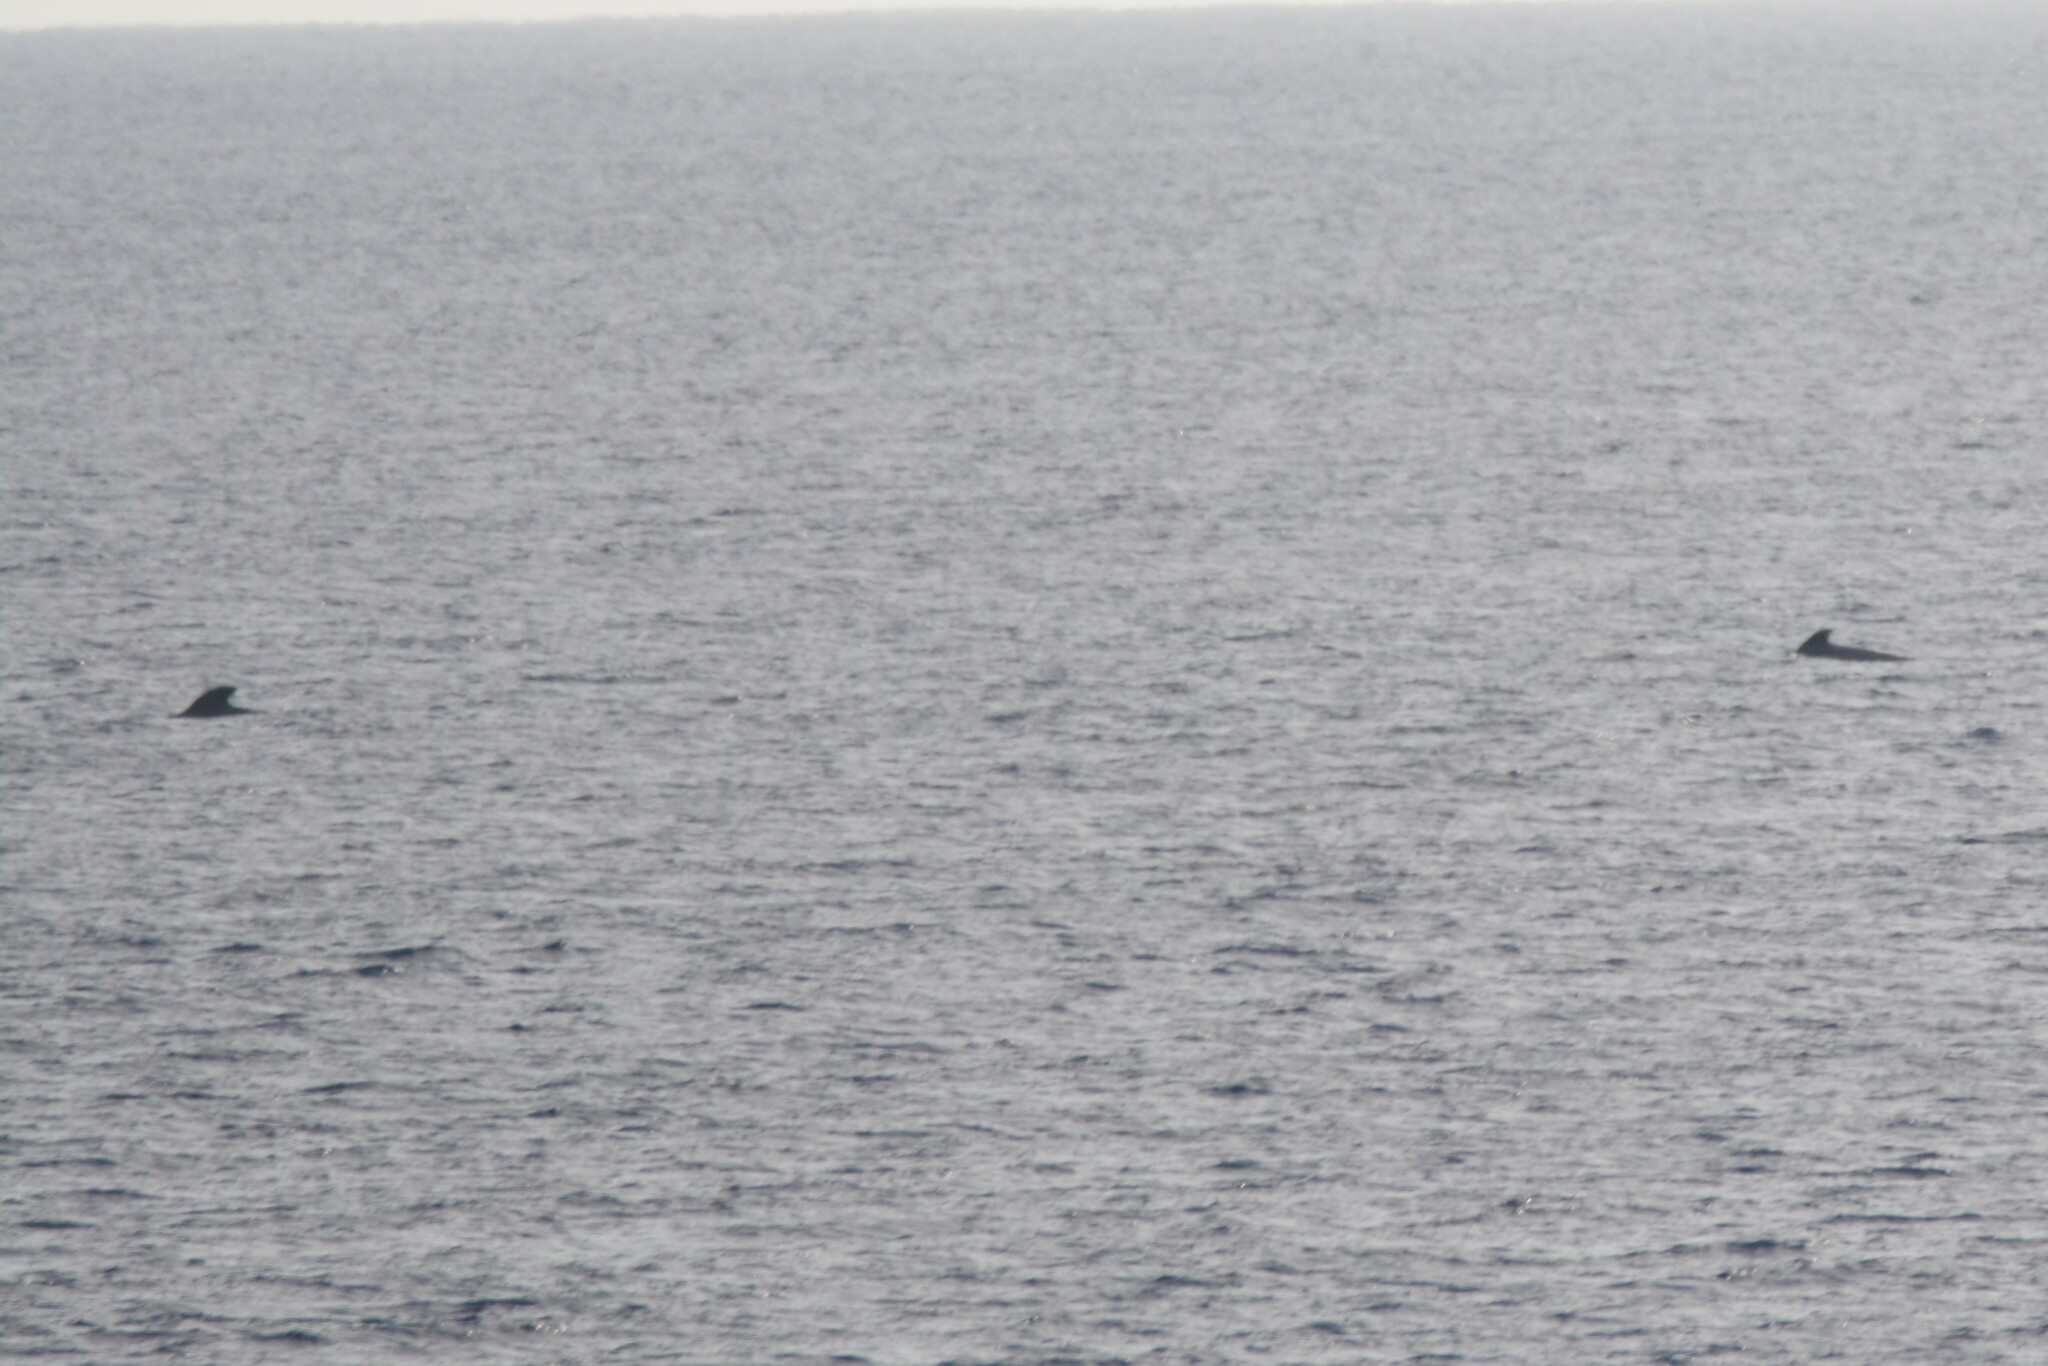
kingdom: Animalia
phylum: Chordata
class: Mammalia
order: Cetacea
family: Delphinidae
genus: Globicephala
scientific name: Globicephala macrorhynchus
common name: Short-finned pilot whale
